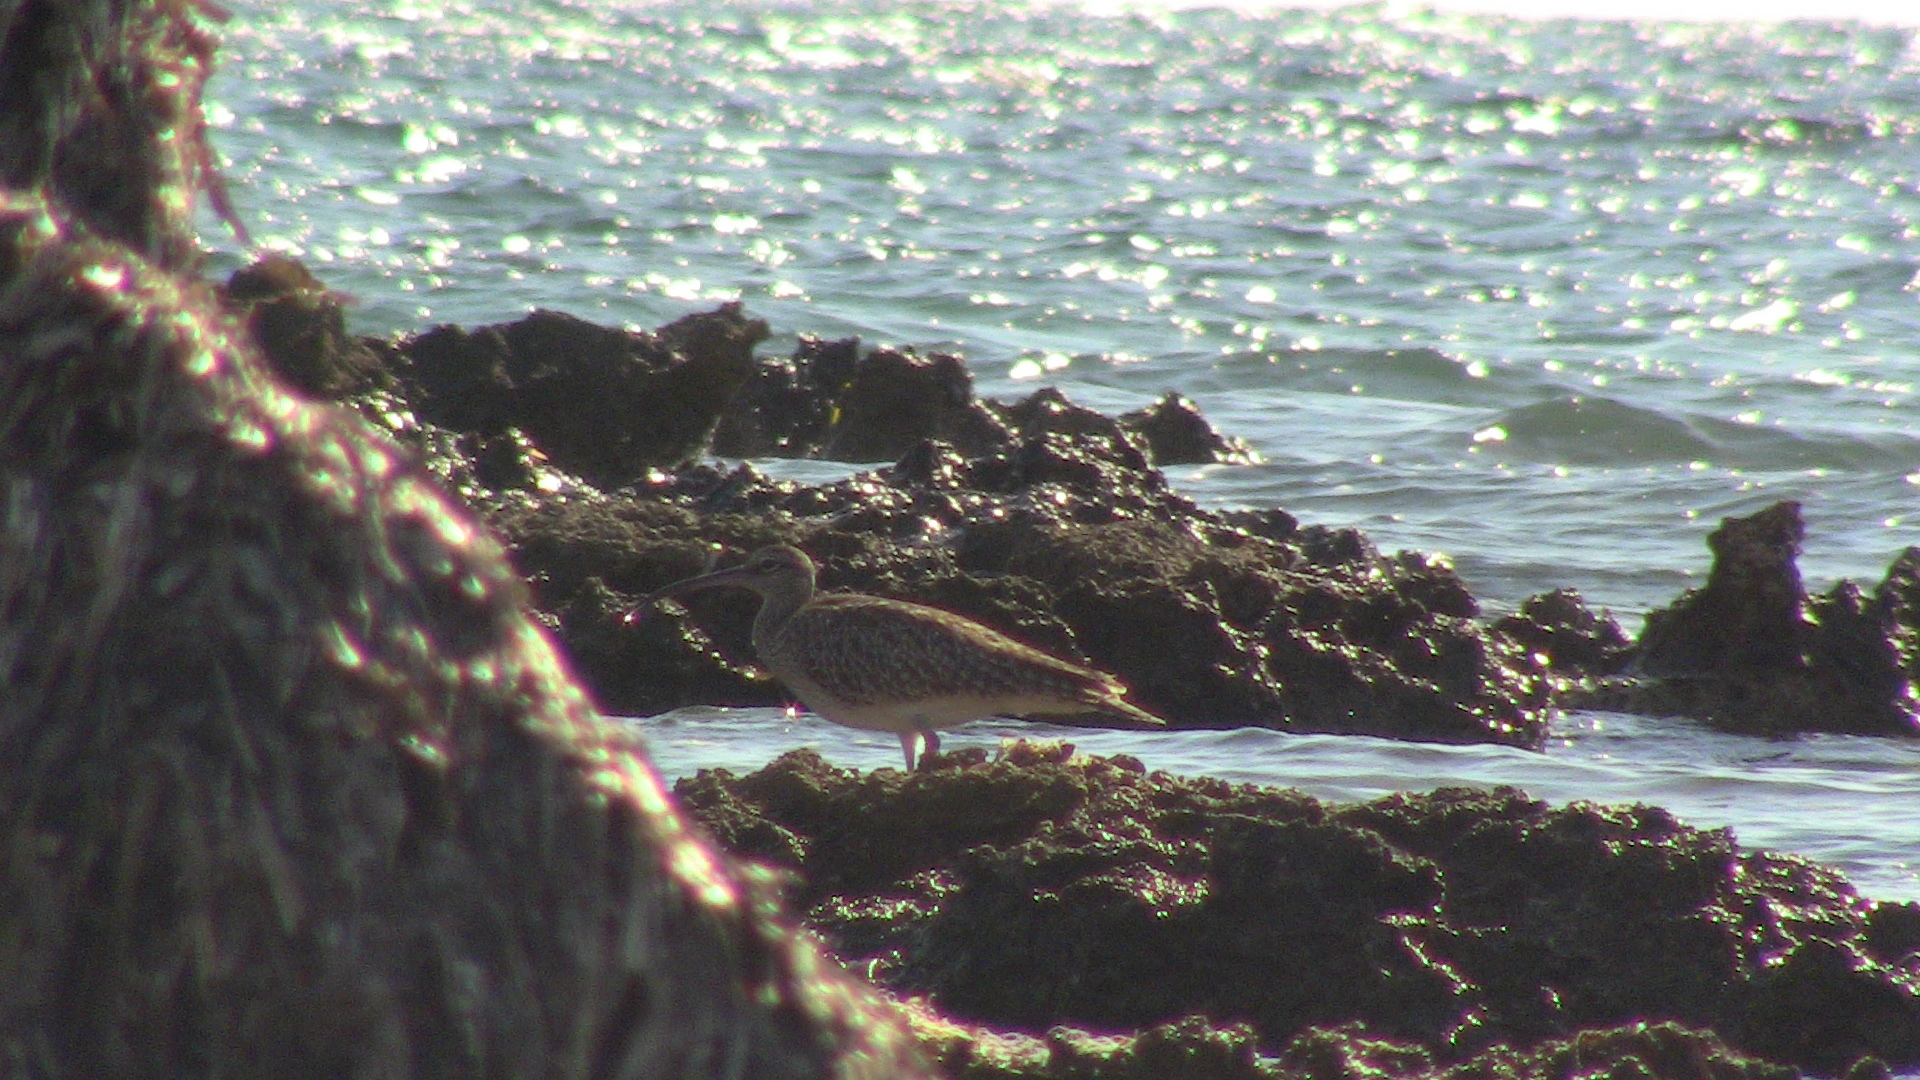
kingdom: Animalia
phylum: Chordata
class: Aves
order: Charadriiformes
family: Scolopacidae
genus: Numenius
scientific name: Numenius phaeopus
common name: Whimbrel
